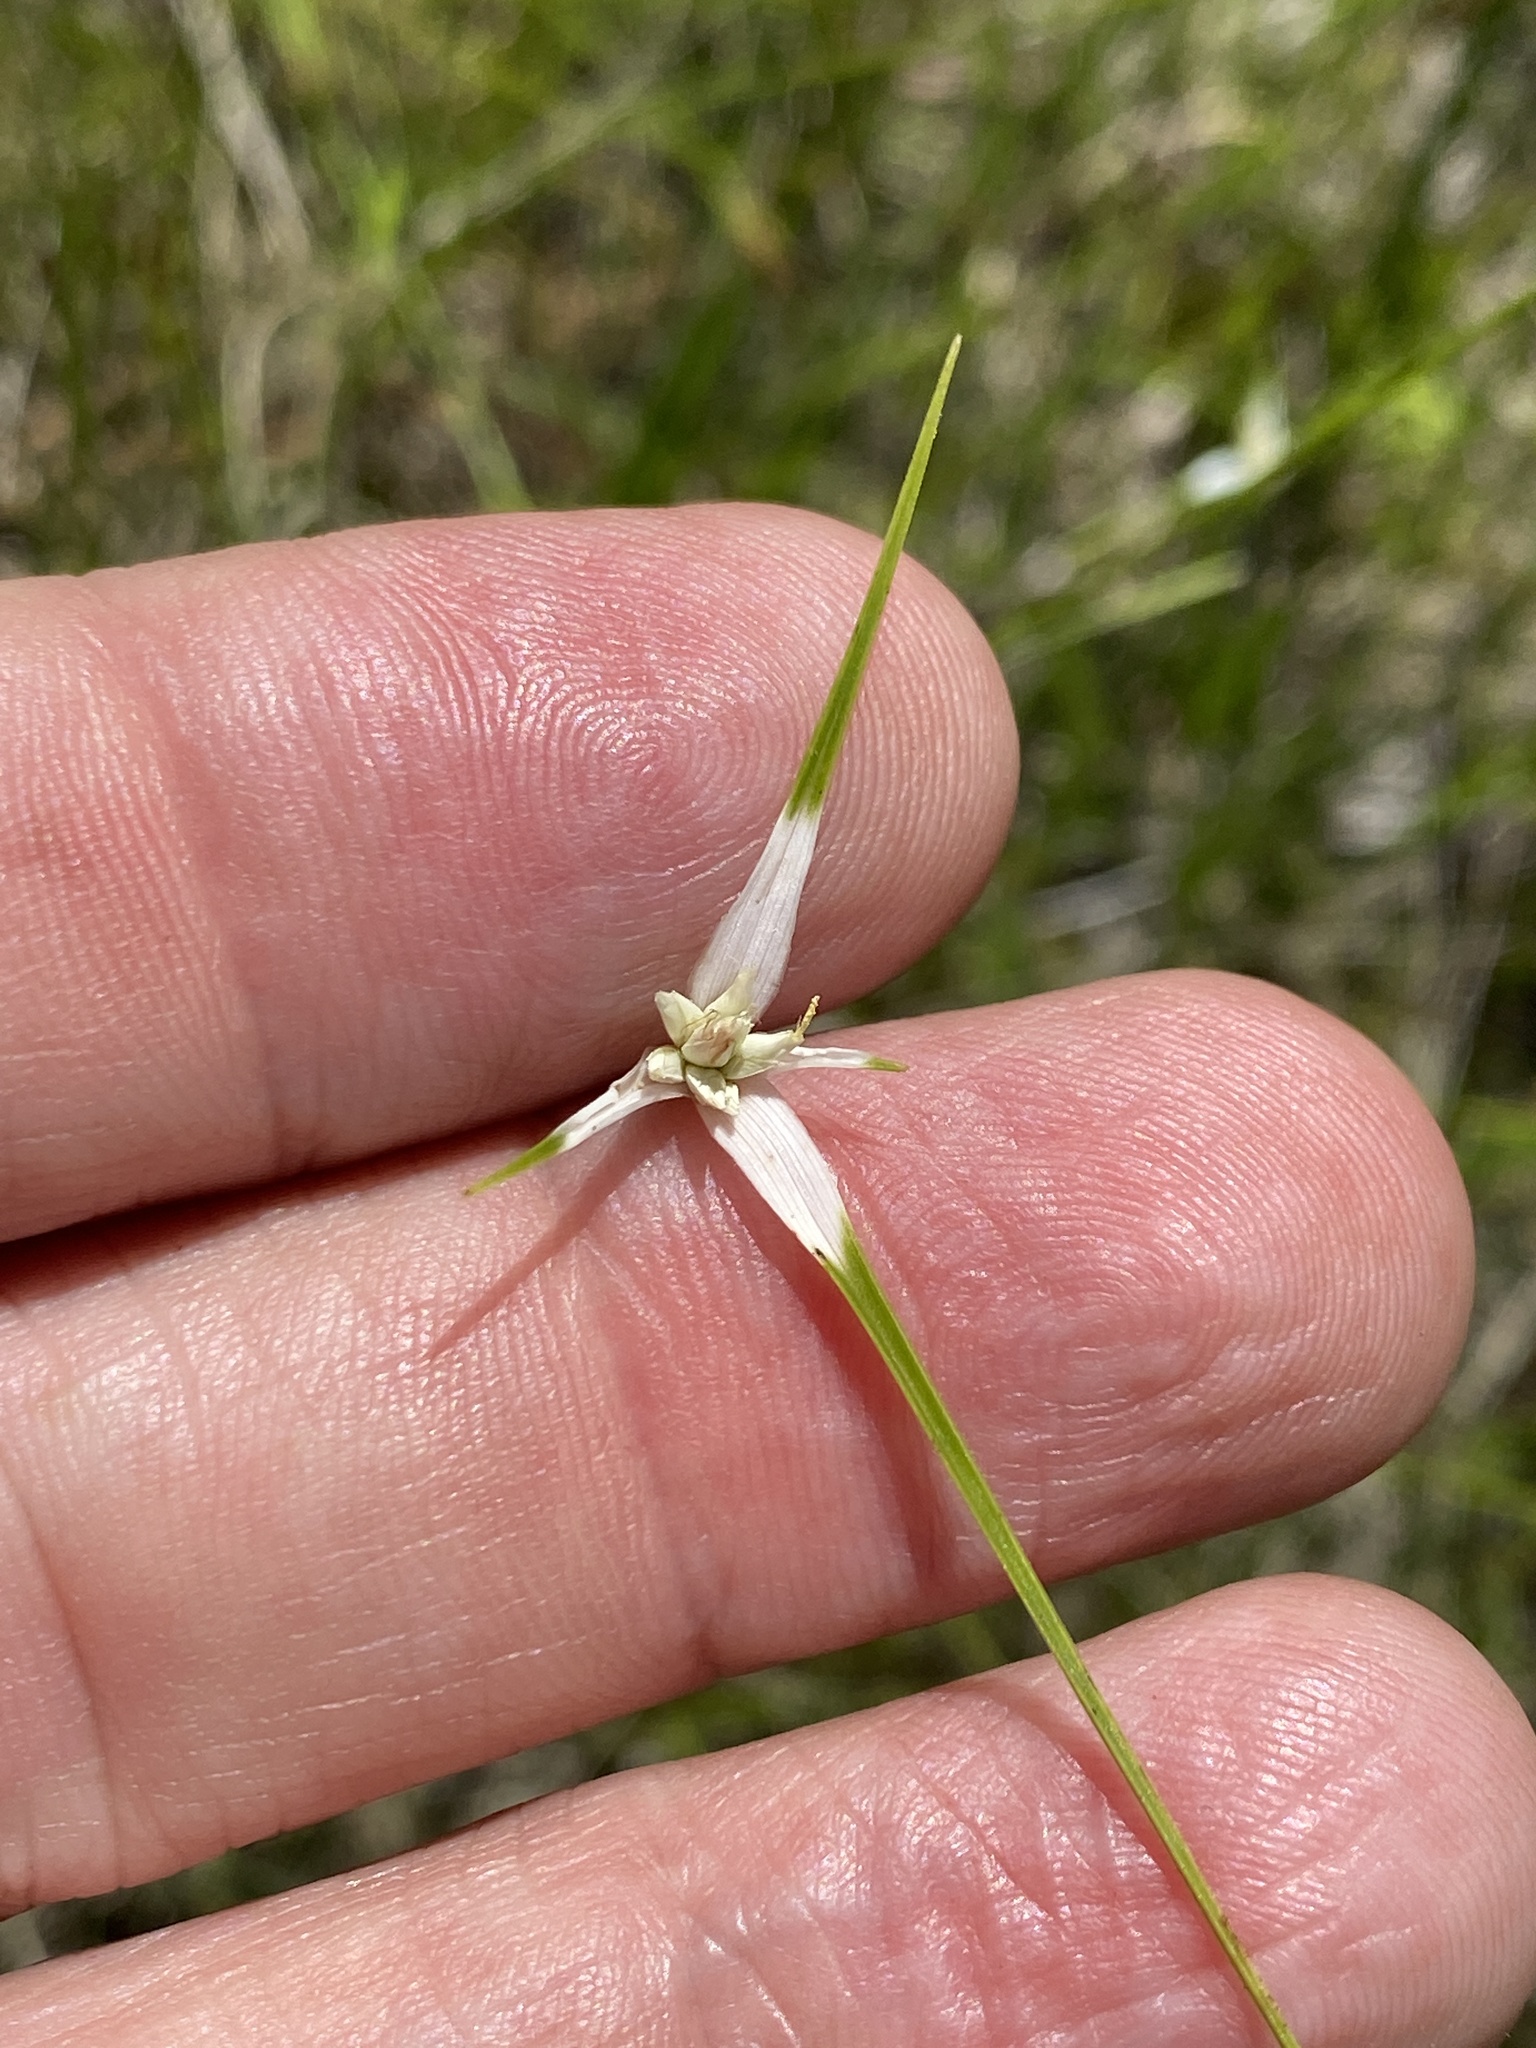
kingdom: Plantae
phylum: Tracheophyta
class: Liliopsida
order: Poales
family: Cyperaceae
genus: Rhynchospora
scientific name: Rhynchospora colorata
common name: Star sedge
